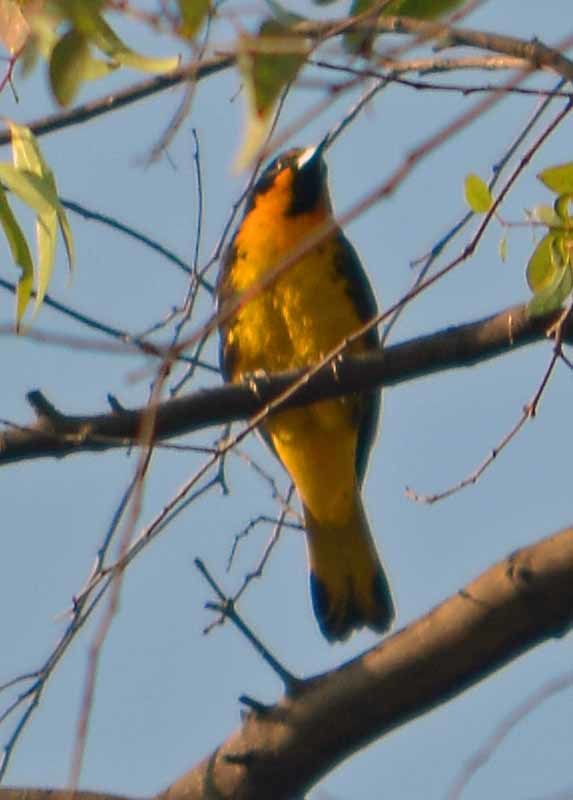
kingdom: Animalia
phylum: Chordata
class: Aves
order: Passeriformes
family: Icteridae
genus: Icterus
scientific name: Icterus abeillei
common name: Black-backed oriole
